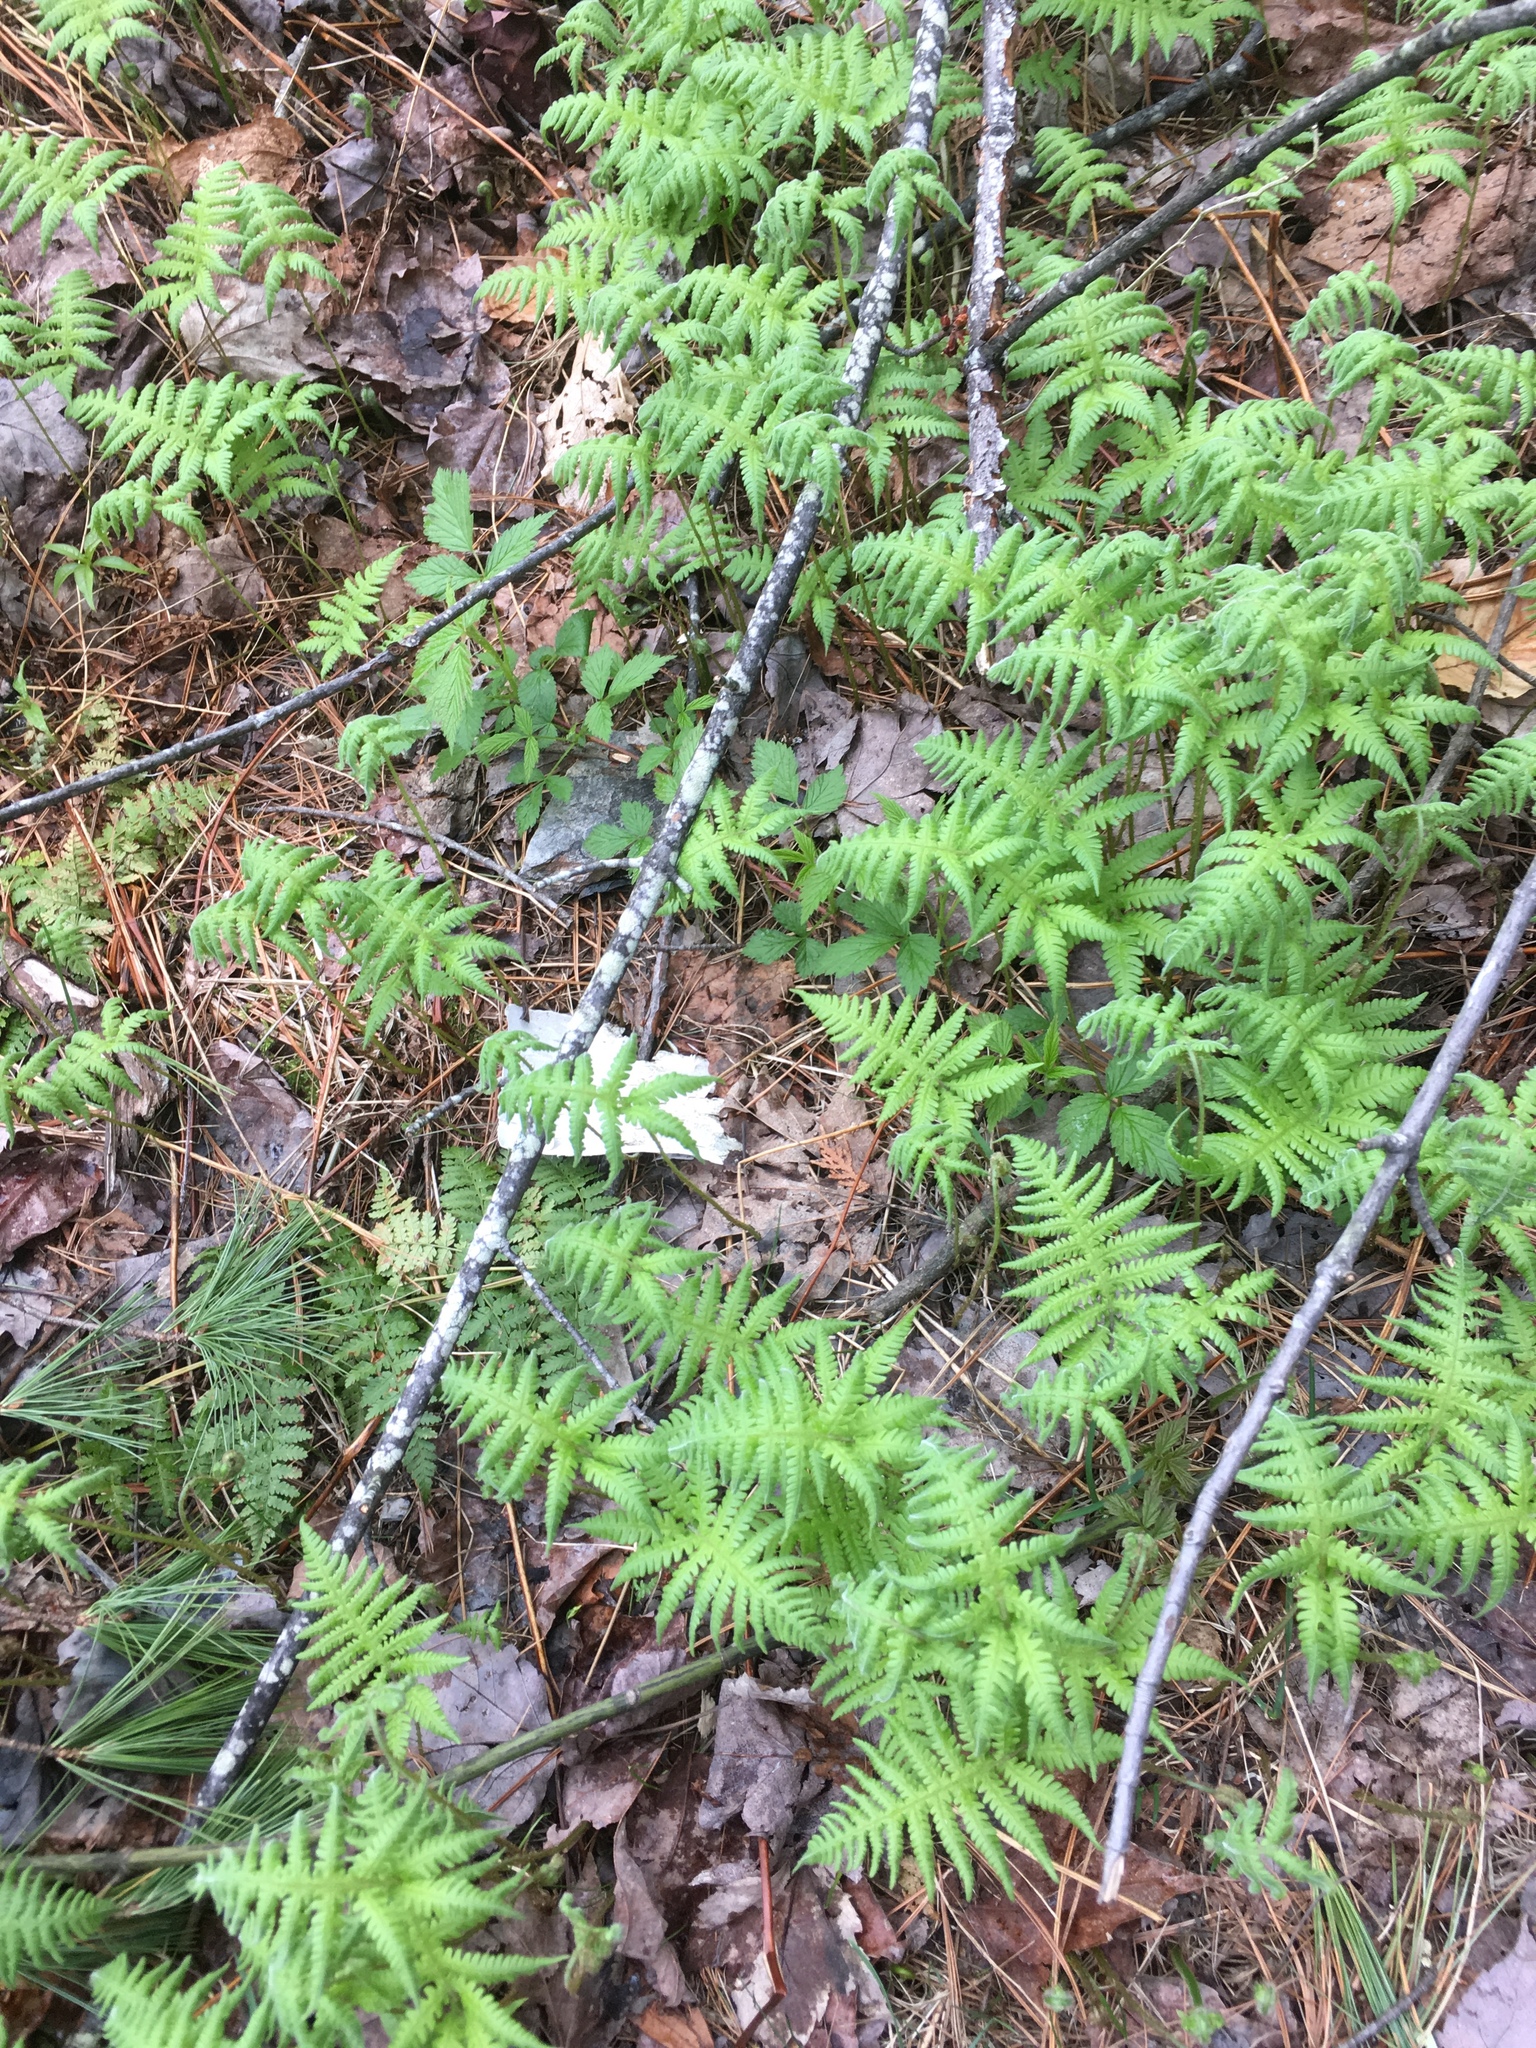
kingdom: Plantae
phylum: Tracheophyta
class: Polypodiopsida
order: Polypodiales
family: Thelypteridaceae
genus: Phegopteris
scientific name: Phegopteris connectilis
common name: Beech fern
